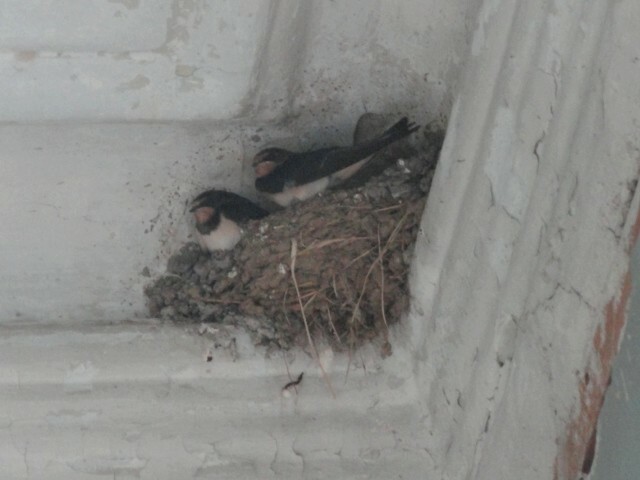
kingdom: Animalia
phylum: Chordata
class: Aves
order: Passeriformes
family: Hirundinidae
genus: Hirundo
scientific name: Hirundo rustica
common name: Barn swallow
